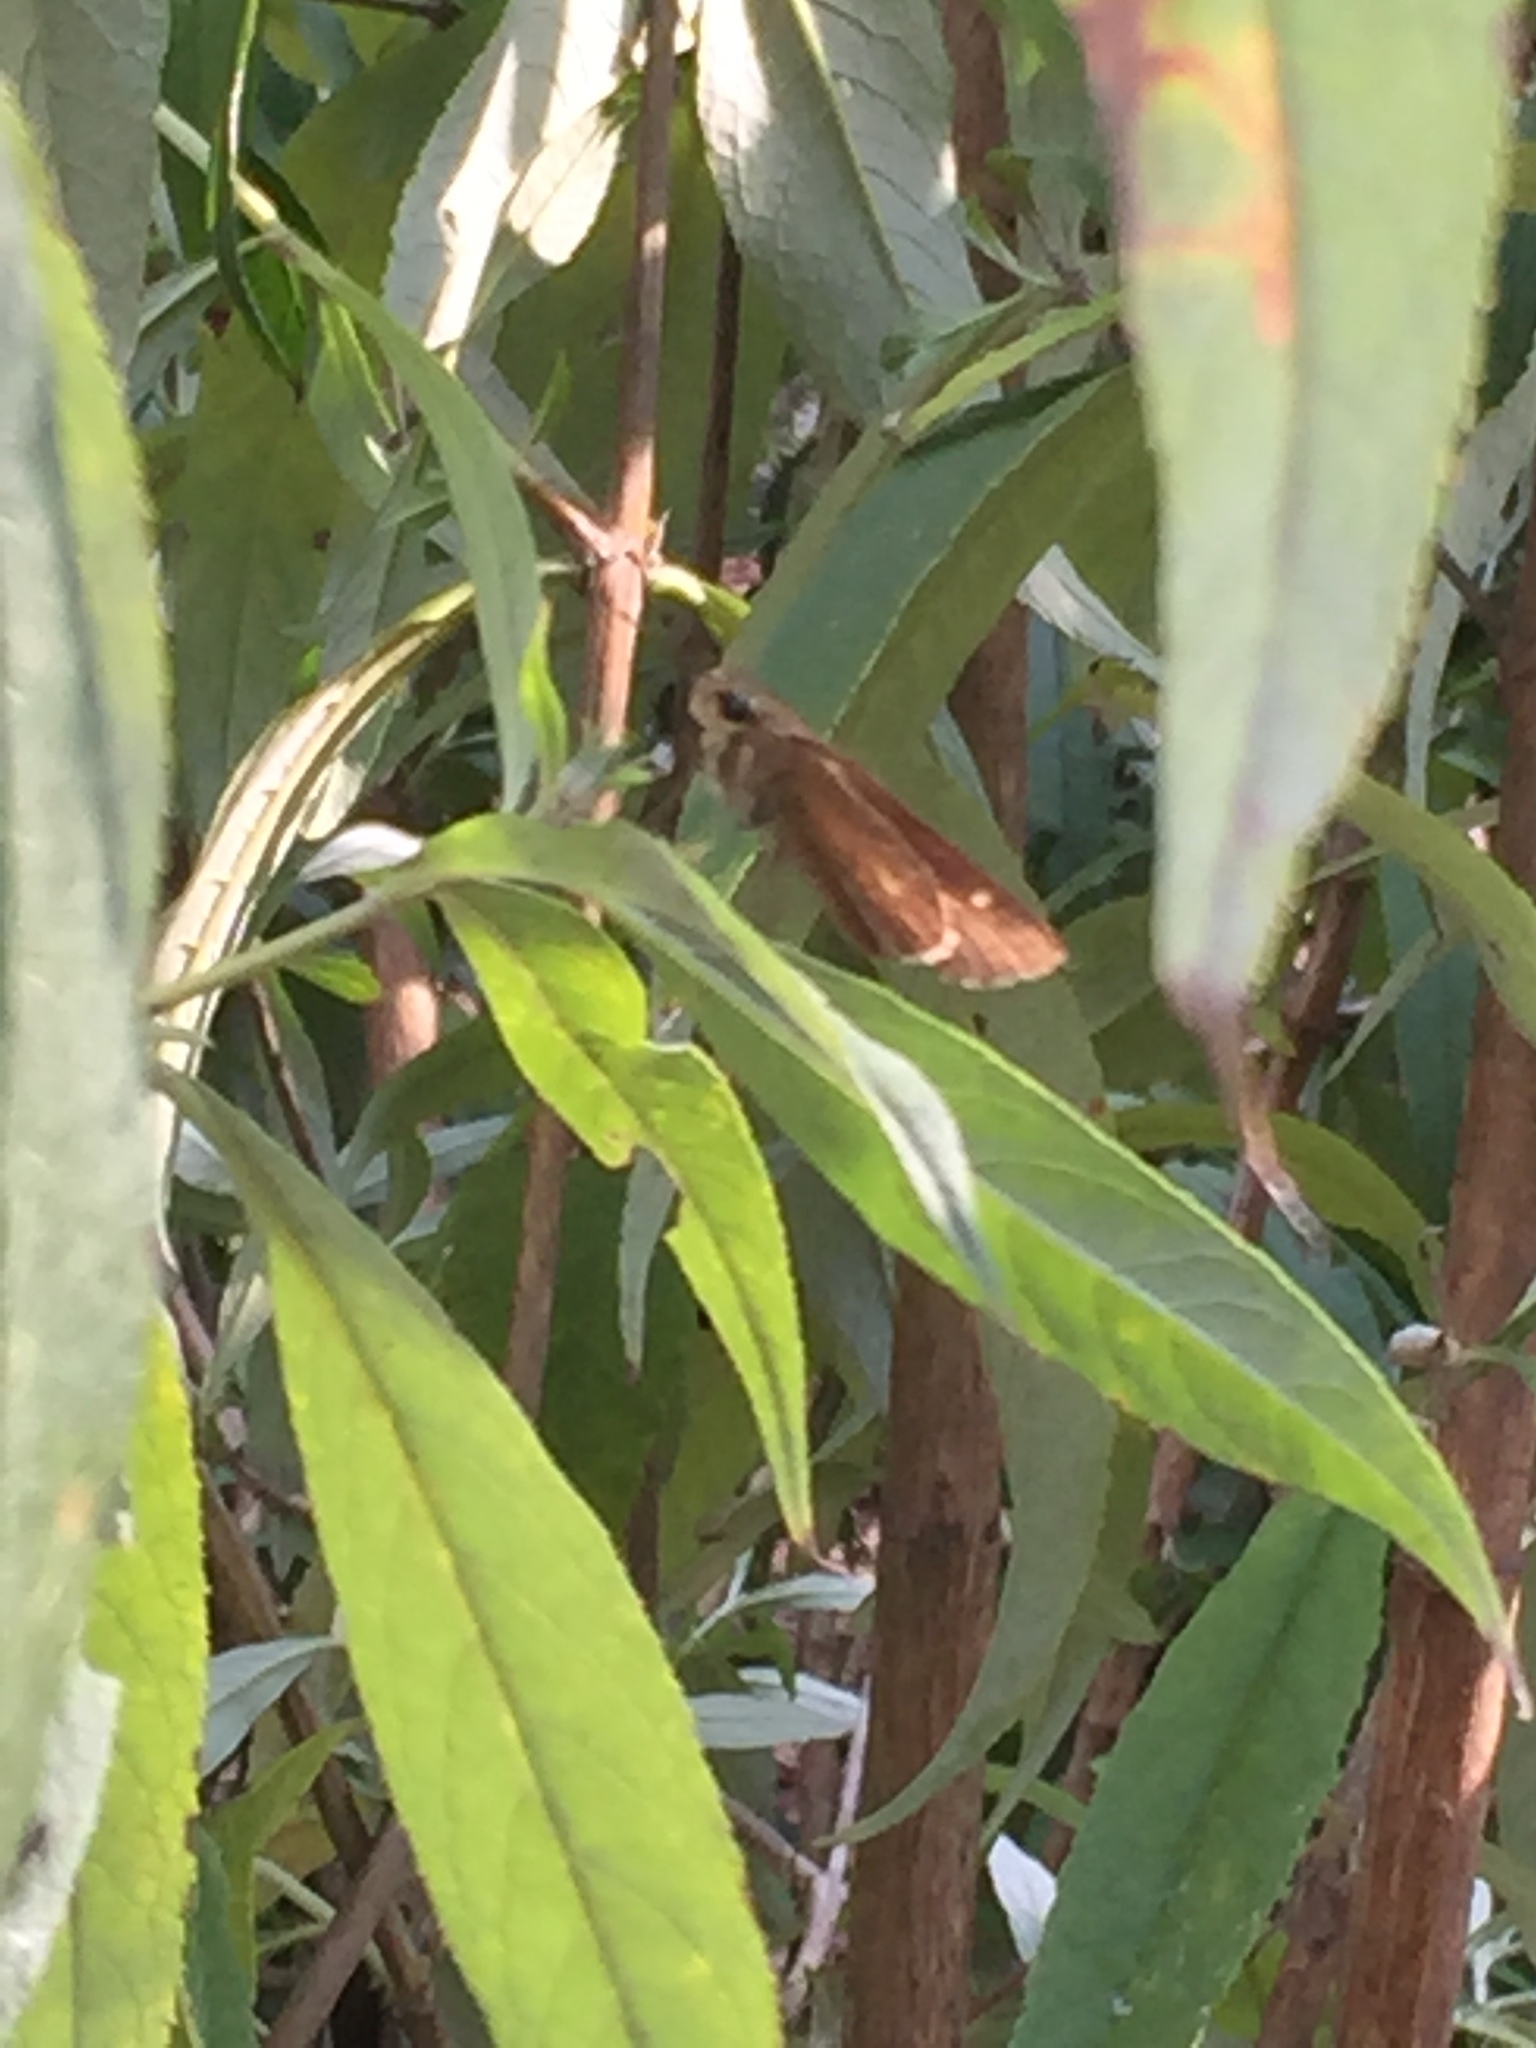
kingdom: Animalia
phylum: Arthropoda
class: Insecta
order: Lepidoptera
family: Hesperiidae
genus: Panoquina
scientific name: Panoquina ocola
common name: Ocola skipper
